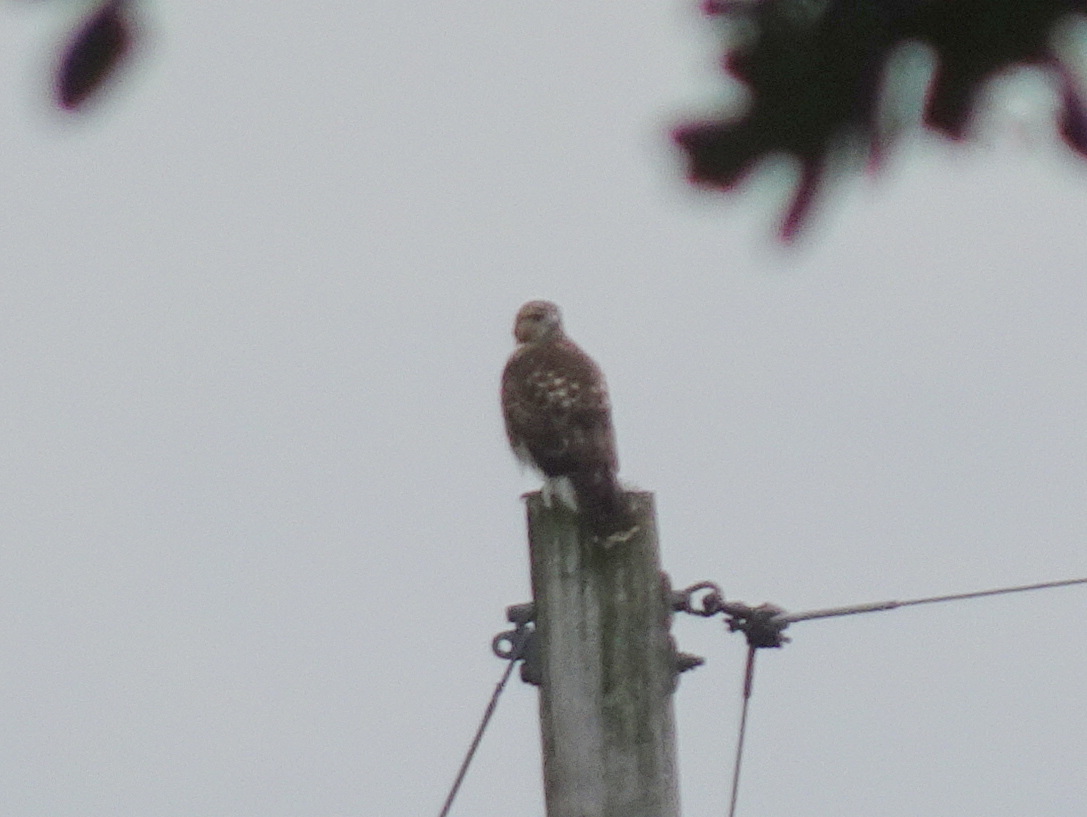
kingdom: Animalia
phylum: Chordata
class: Aves
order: Accipitriformes
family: Accipitridae
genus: Buteo
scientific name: Buteo jamaicensis
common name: Red-tailed hawk
